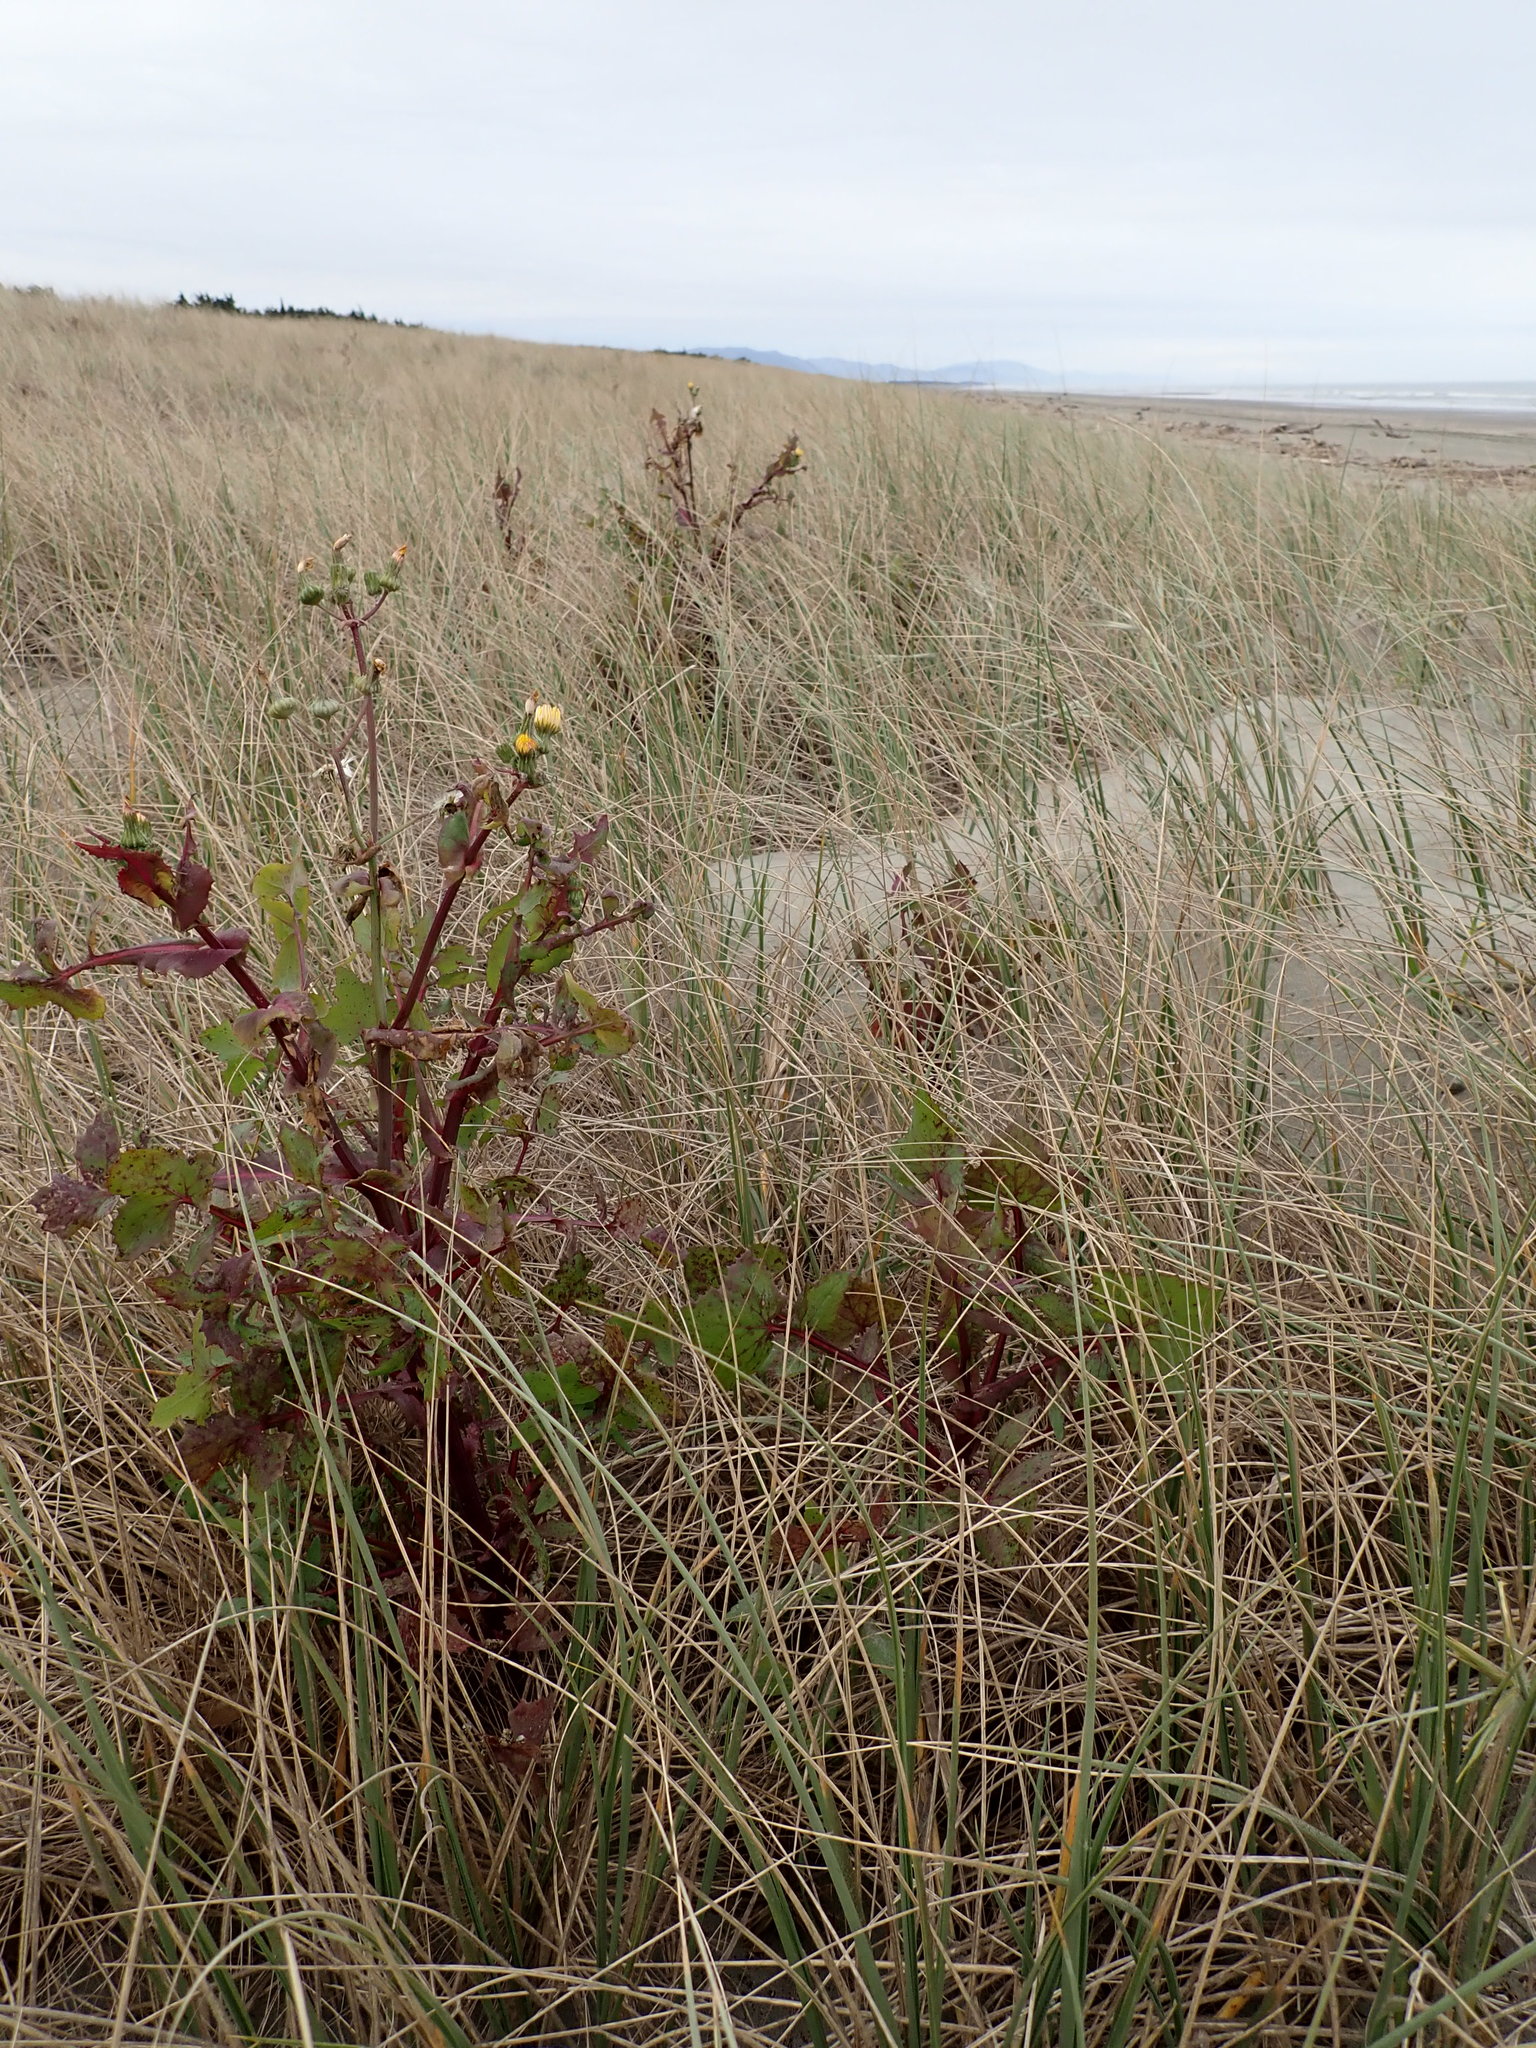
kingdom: Plantae
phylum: Tracheophyta
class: Magnoliopsida
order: Asterales
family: Asteraceae
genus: Sonchus
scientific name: Sonchus oleraceus
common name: Common sowthistle
